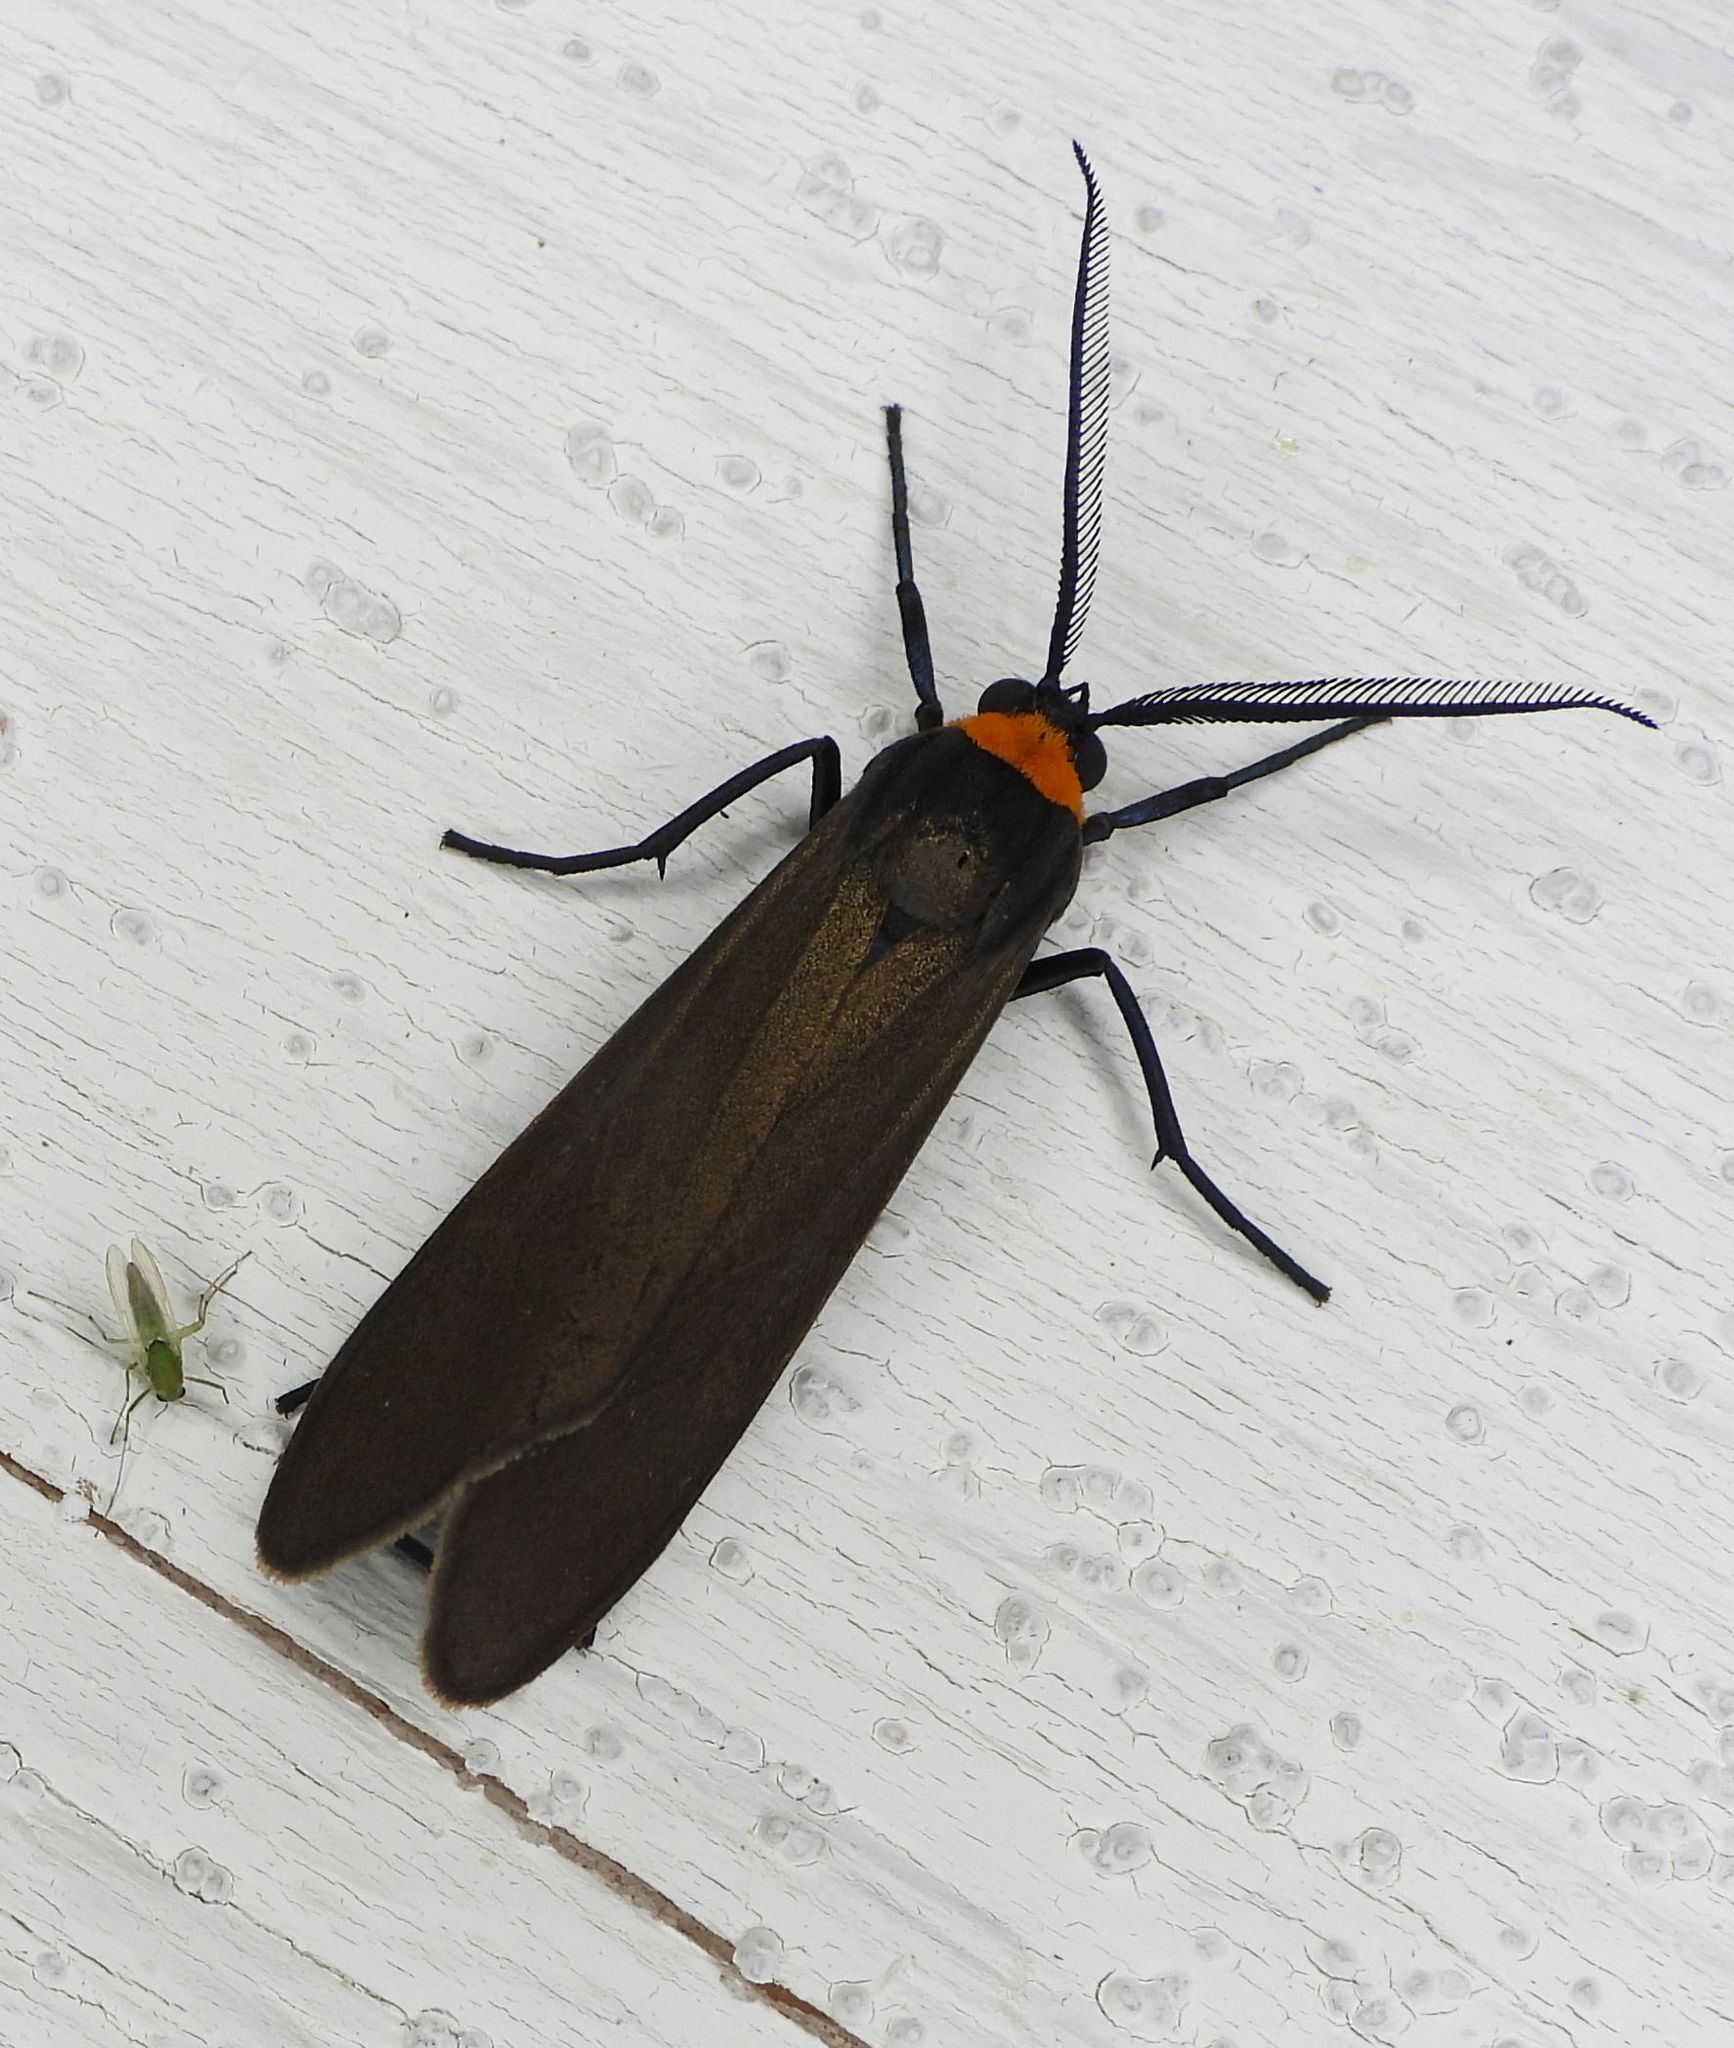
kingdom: Animalia
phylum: Arthropoda
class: Insecta
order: Lepidoptera
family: Erebidae
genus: Cisseps
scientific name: Cisseps fulvicollis
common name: Yellow-collared scape moth
